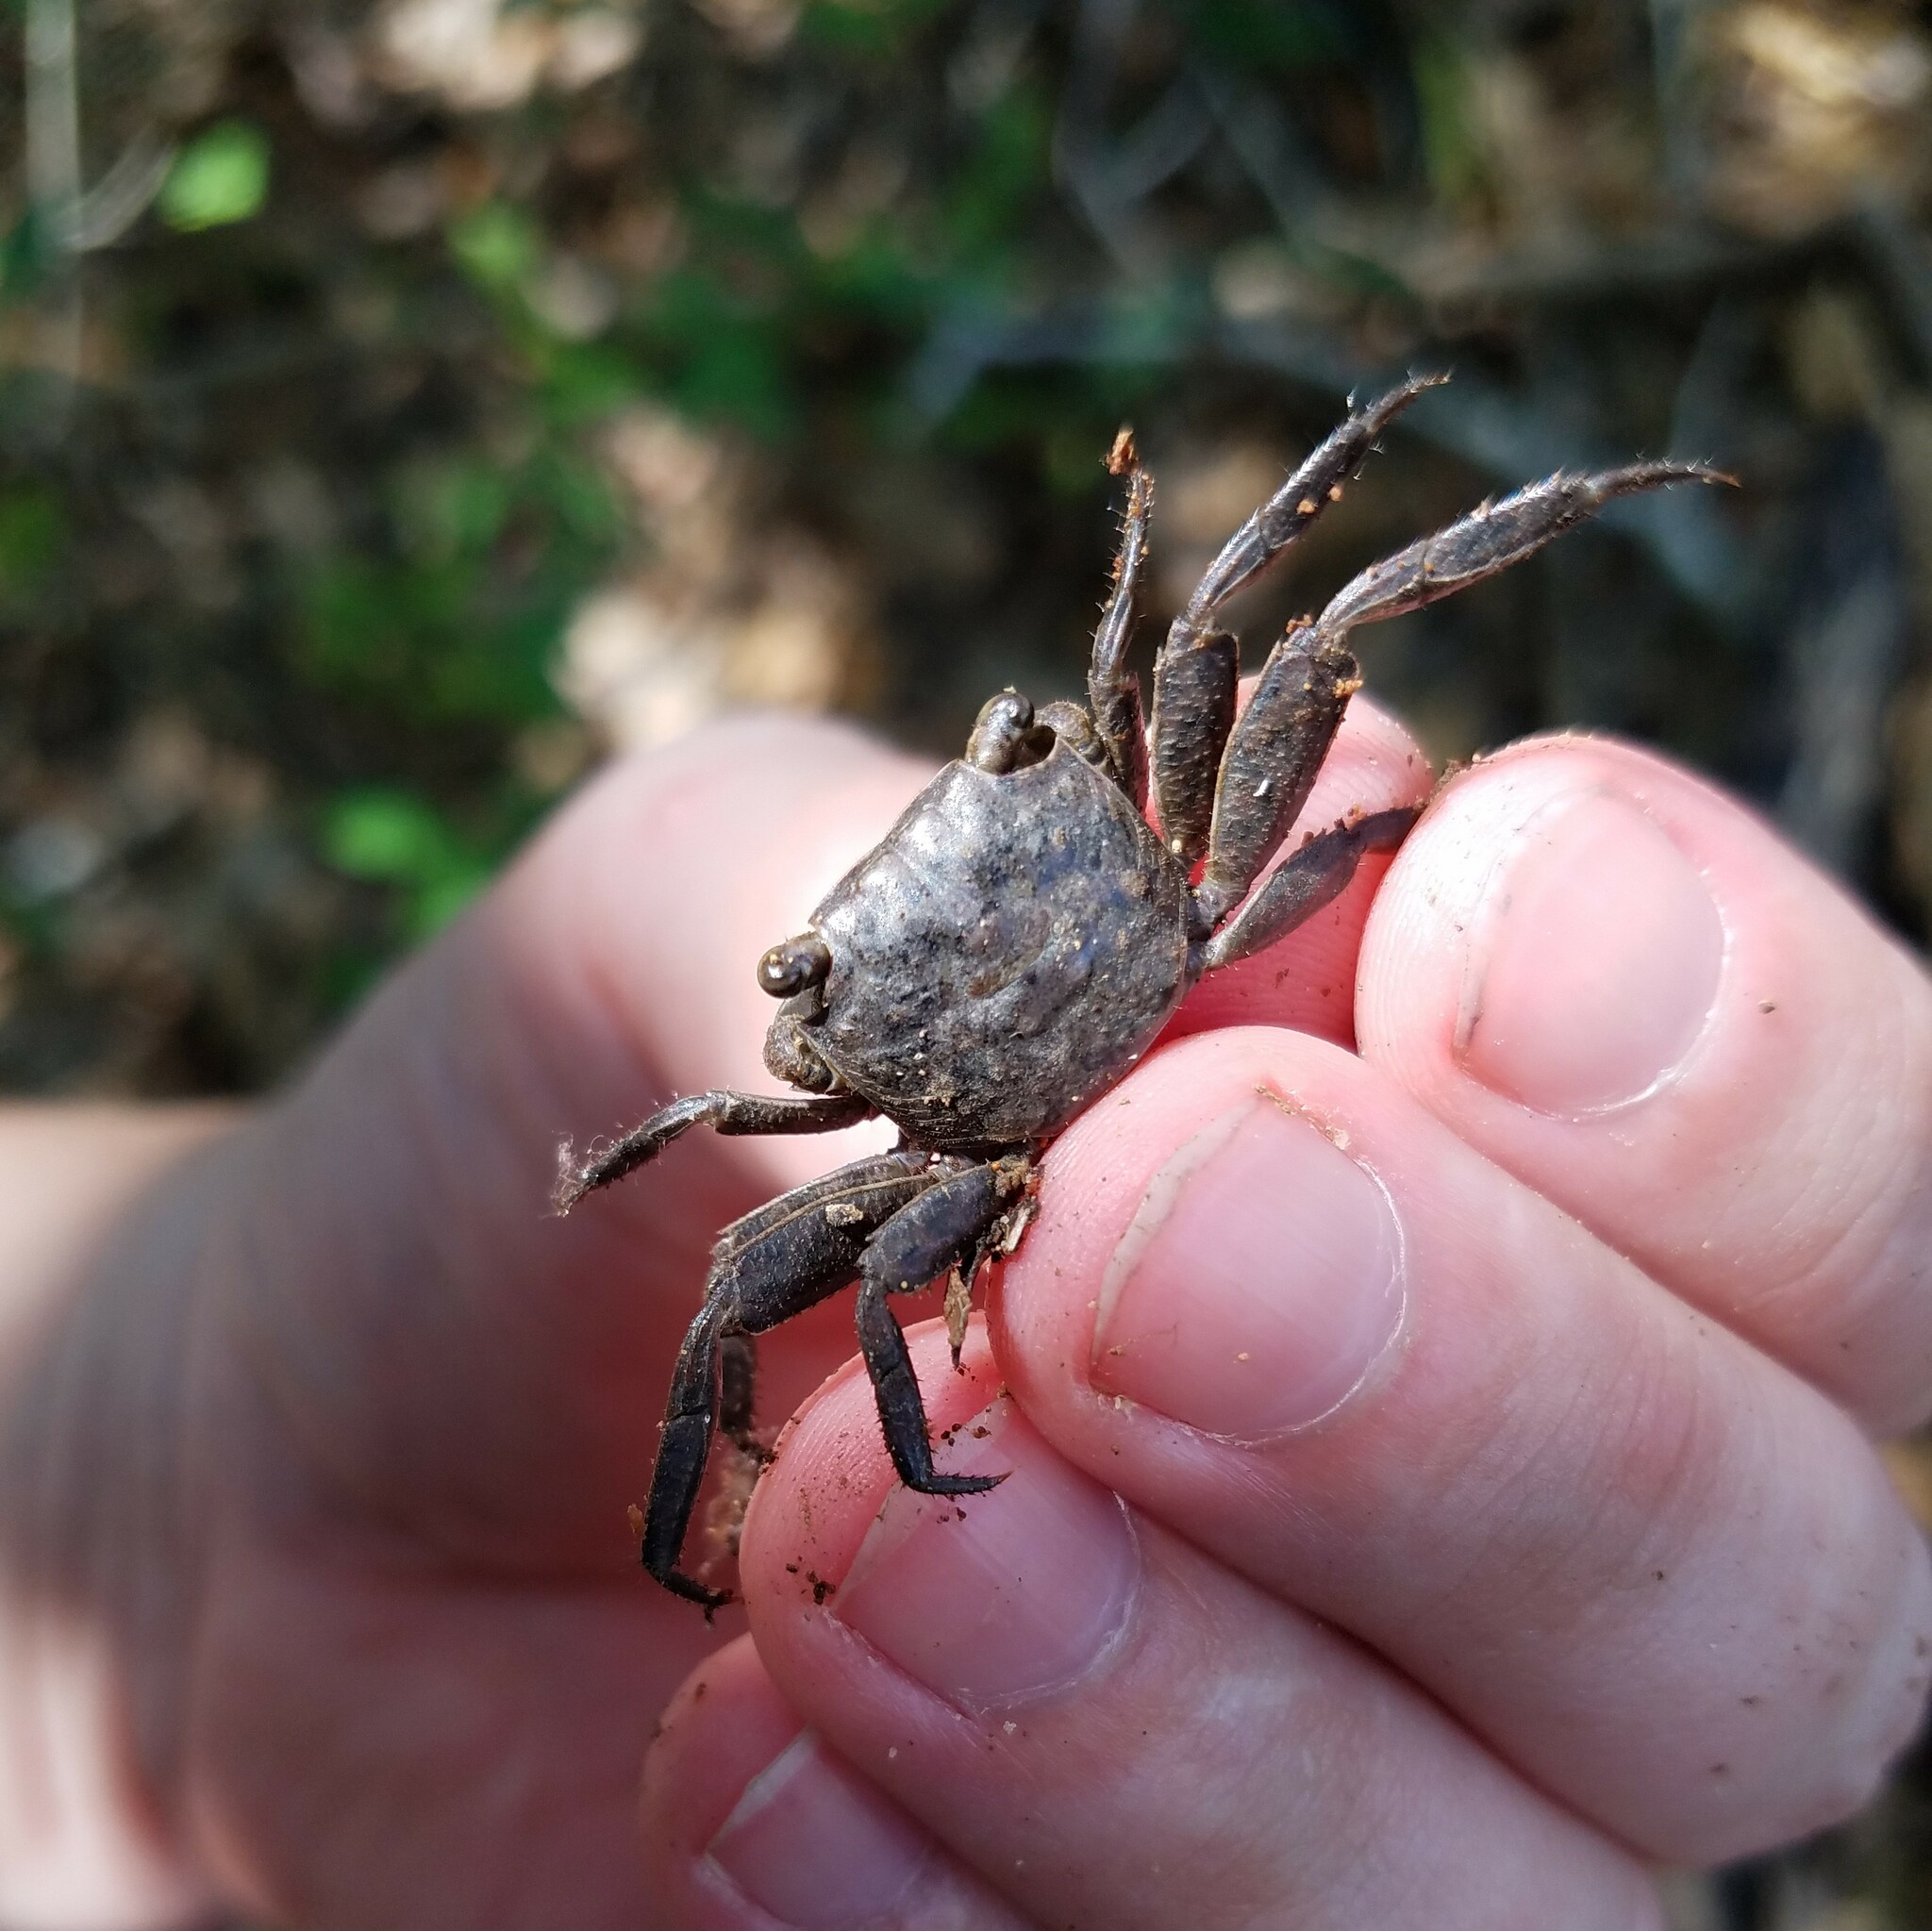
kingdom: Animalia
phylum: Arthropoda
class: Malacostraca
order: Decapoda
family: Sesarmidae
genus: Armases
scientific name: Armases cinereum
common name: Squareback marsh crab
